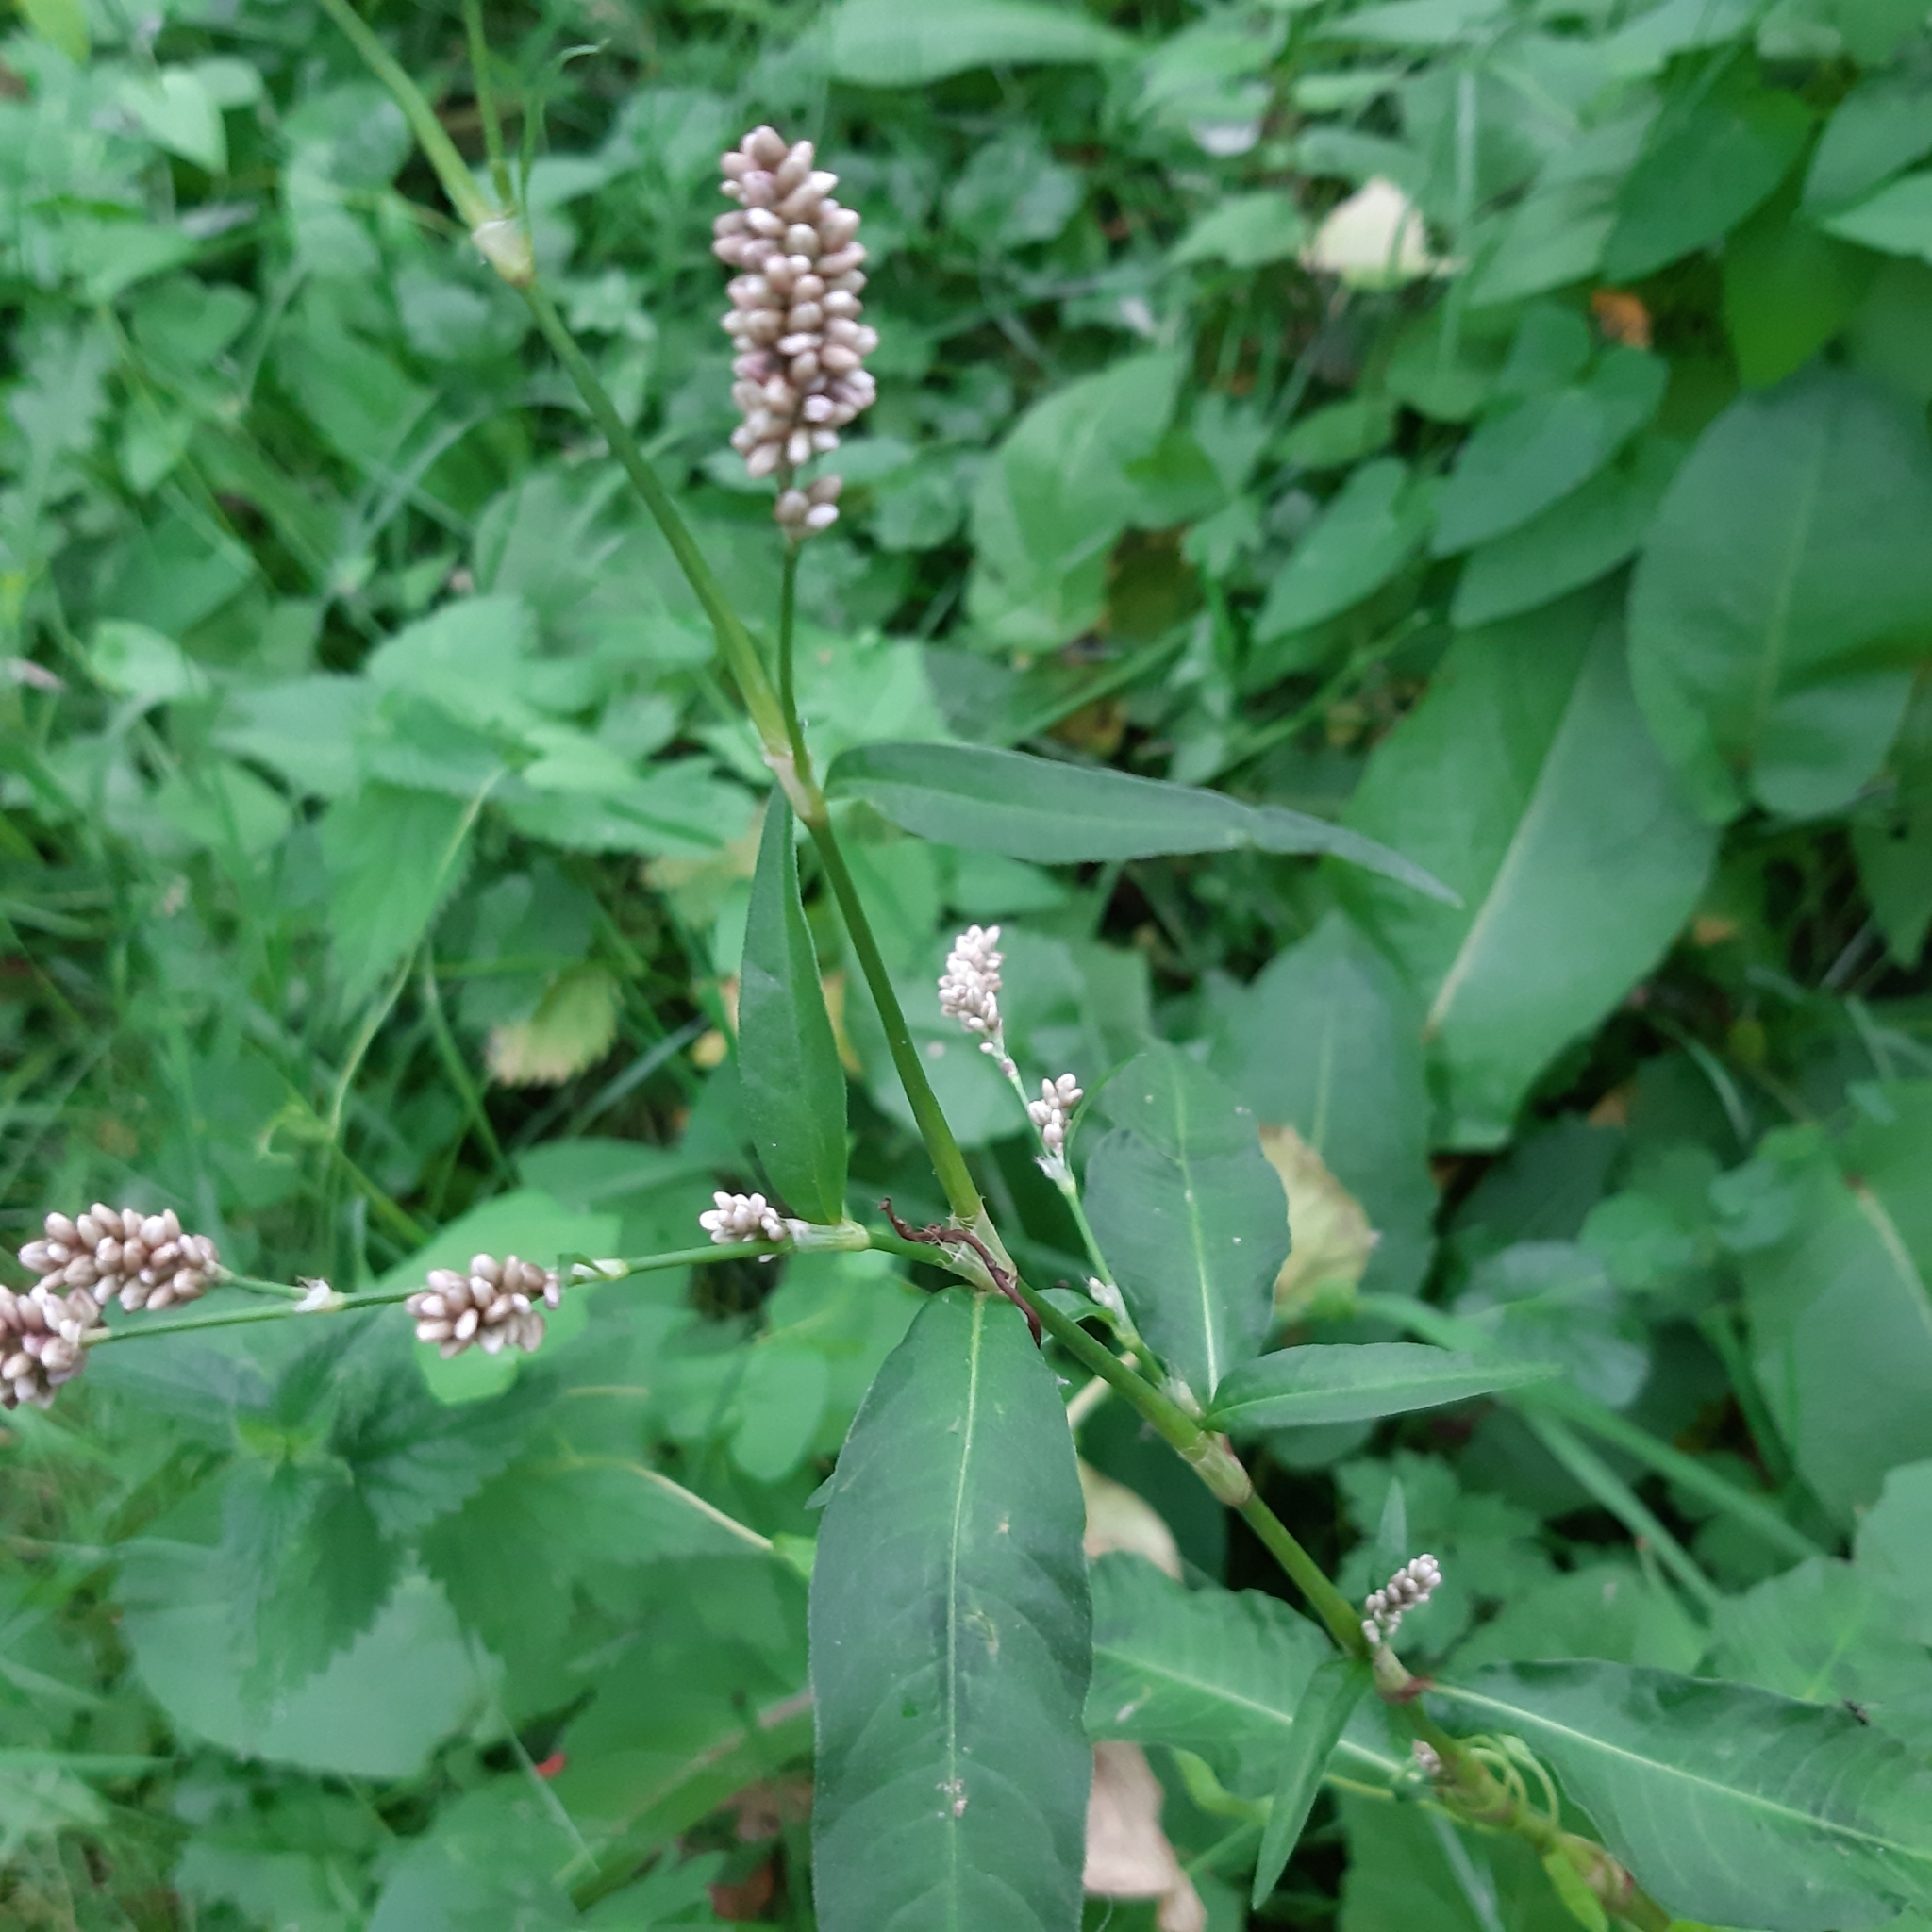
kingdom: Plantae
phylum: Tracheophyta
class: Magnoliopsida
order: Caryophyllales
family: Polygonaceae
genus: Persicaria
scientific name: Persicaria maculosa
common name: Redshank
